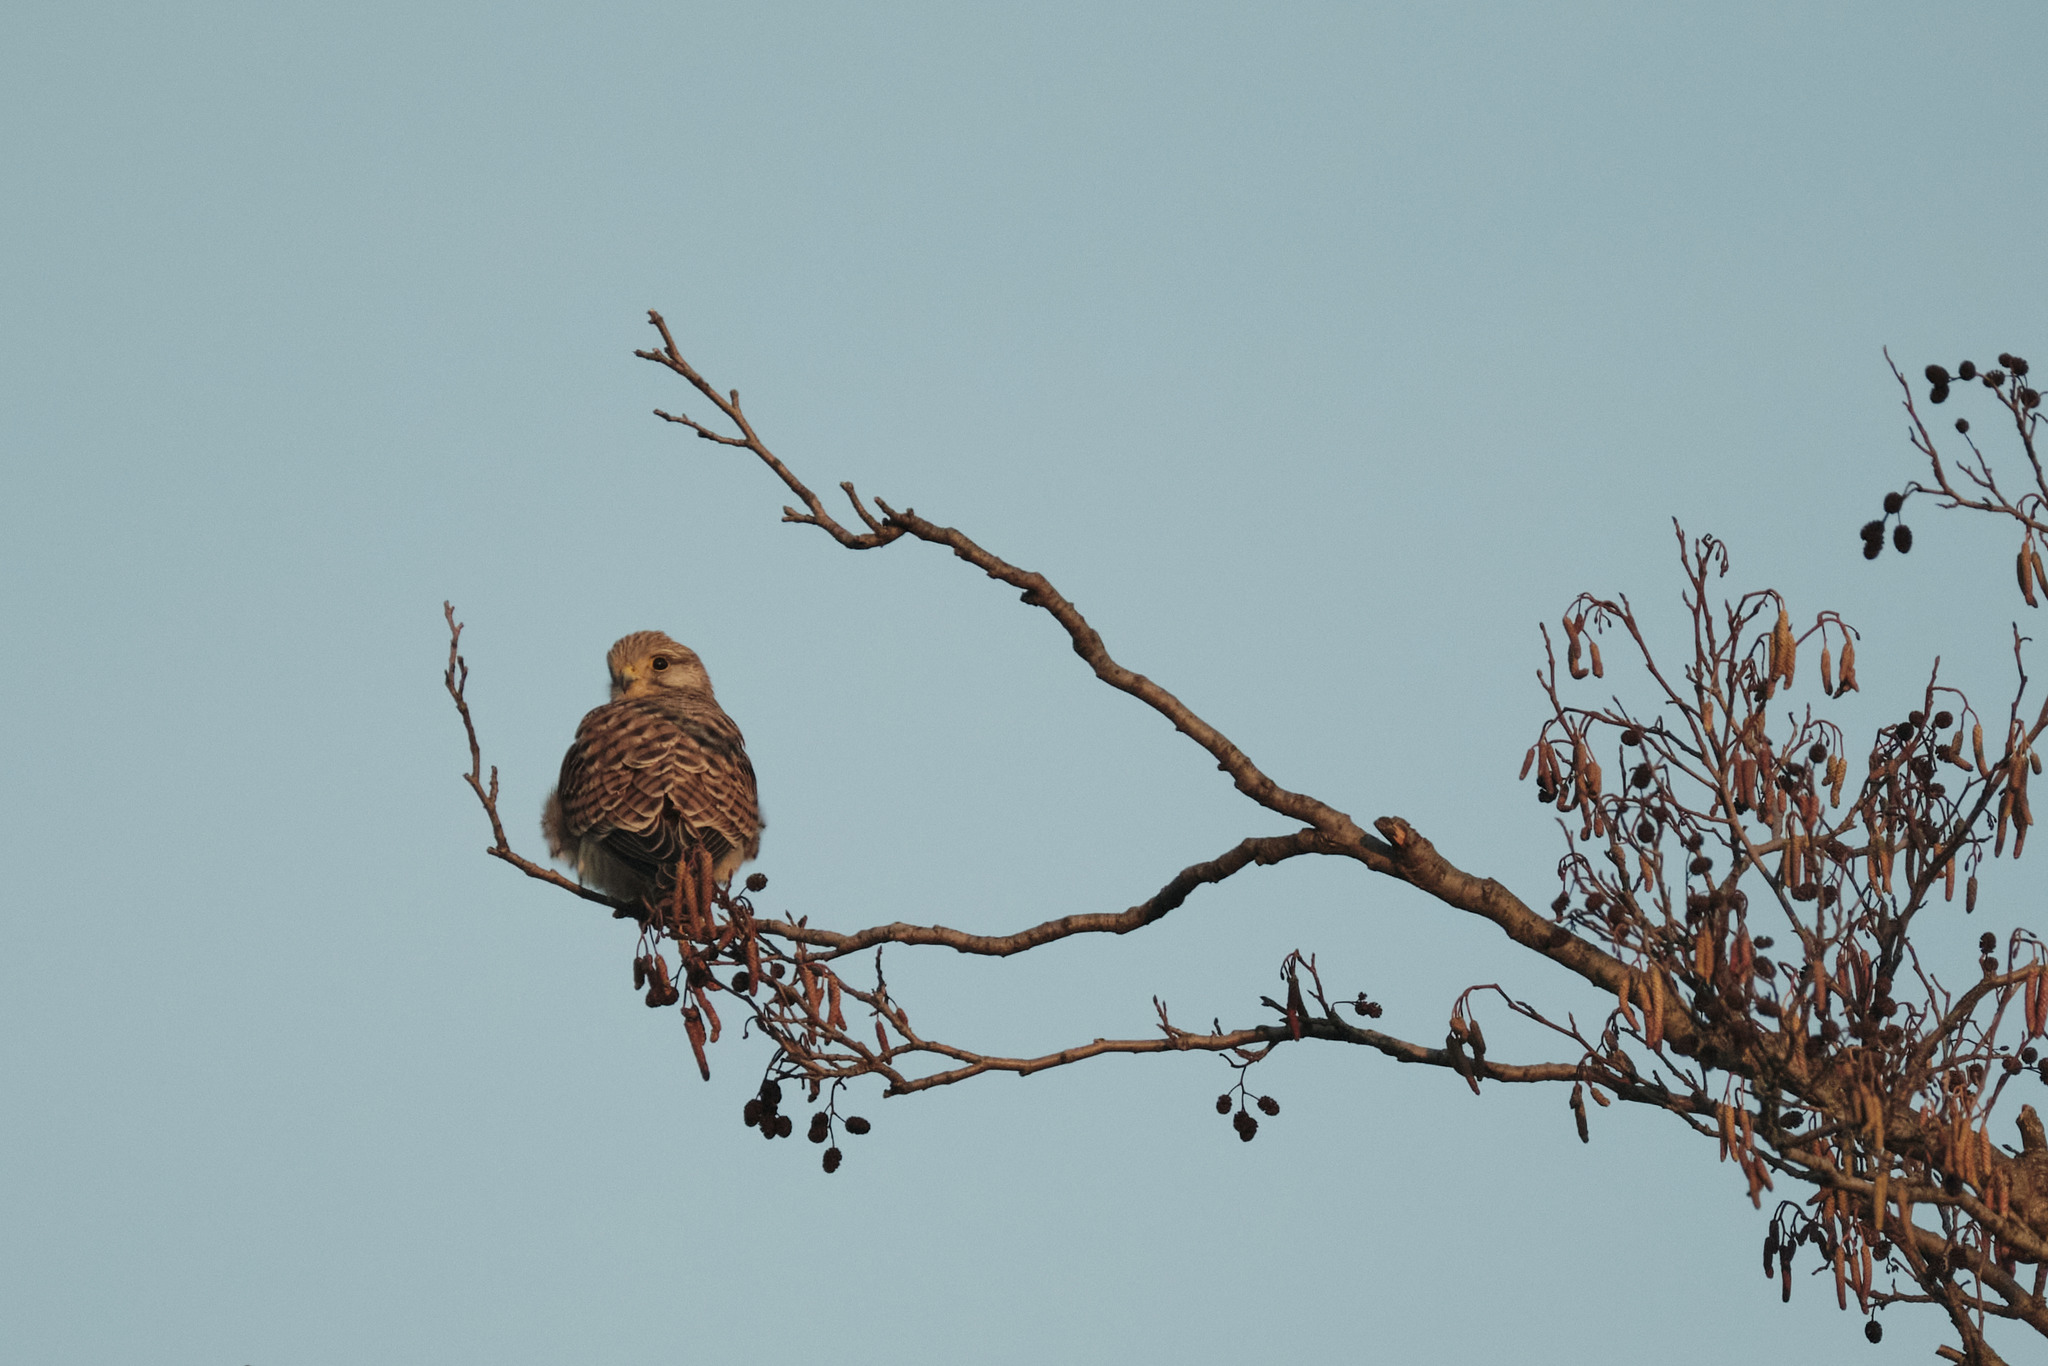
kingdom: Animalia
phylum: Chordata
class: Aves
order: Falconiformes
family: Falconidae
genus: Falco
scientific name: Falco tinnunculus
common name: Common kestrel
